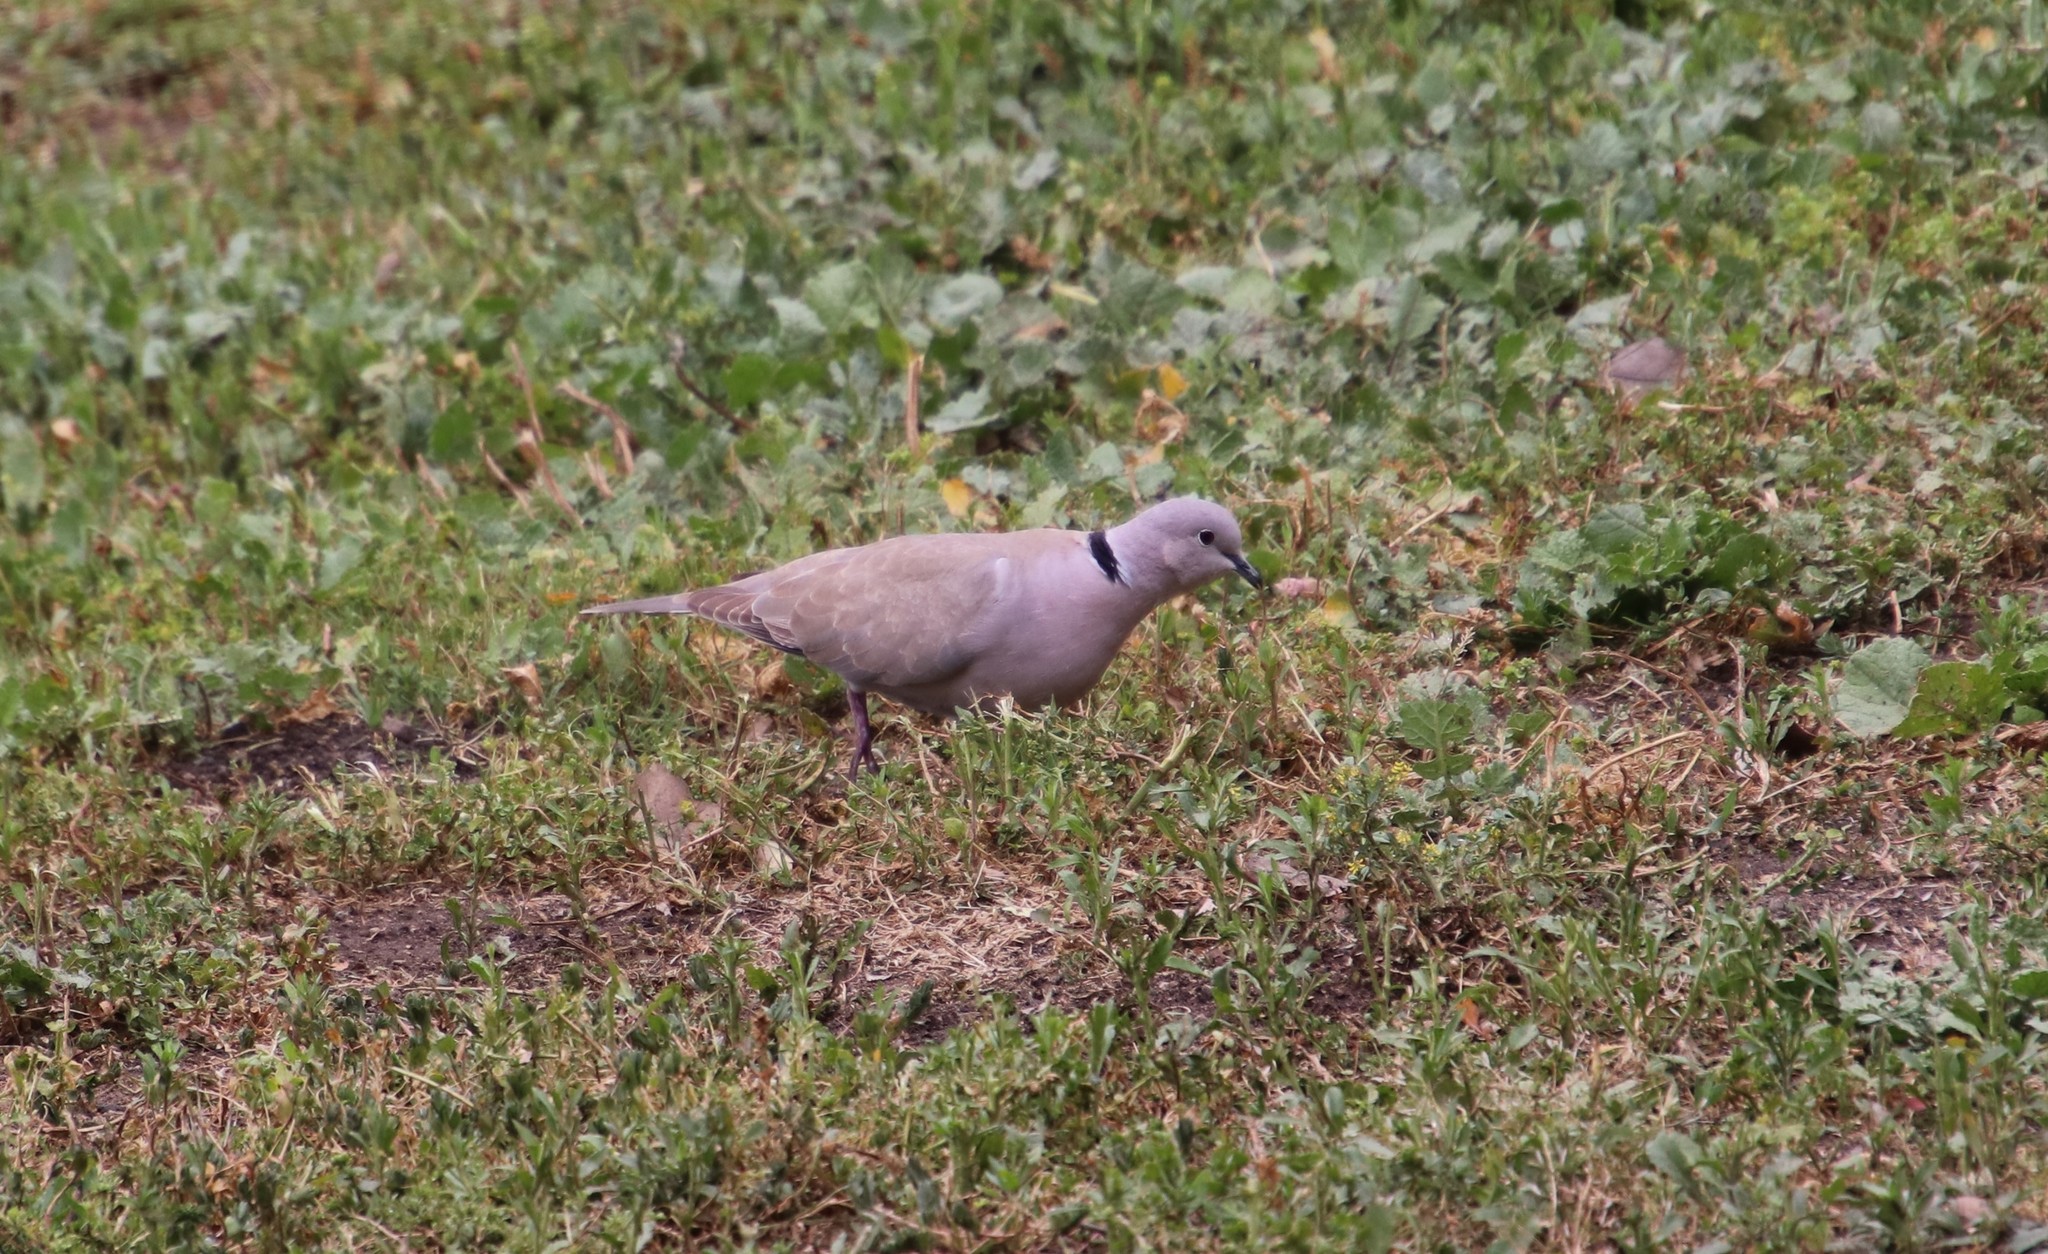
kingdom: Animalia
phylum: Chordata
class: Aves
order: Columbiformes
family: Columbidae
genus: Streptopelia
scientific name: Streptopelia decaocto
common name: Eurasian collared dove
